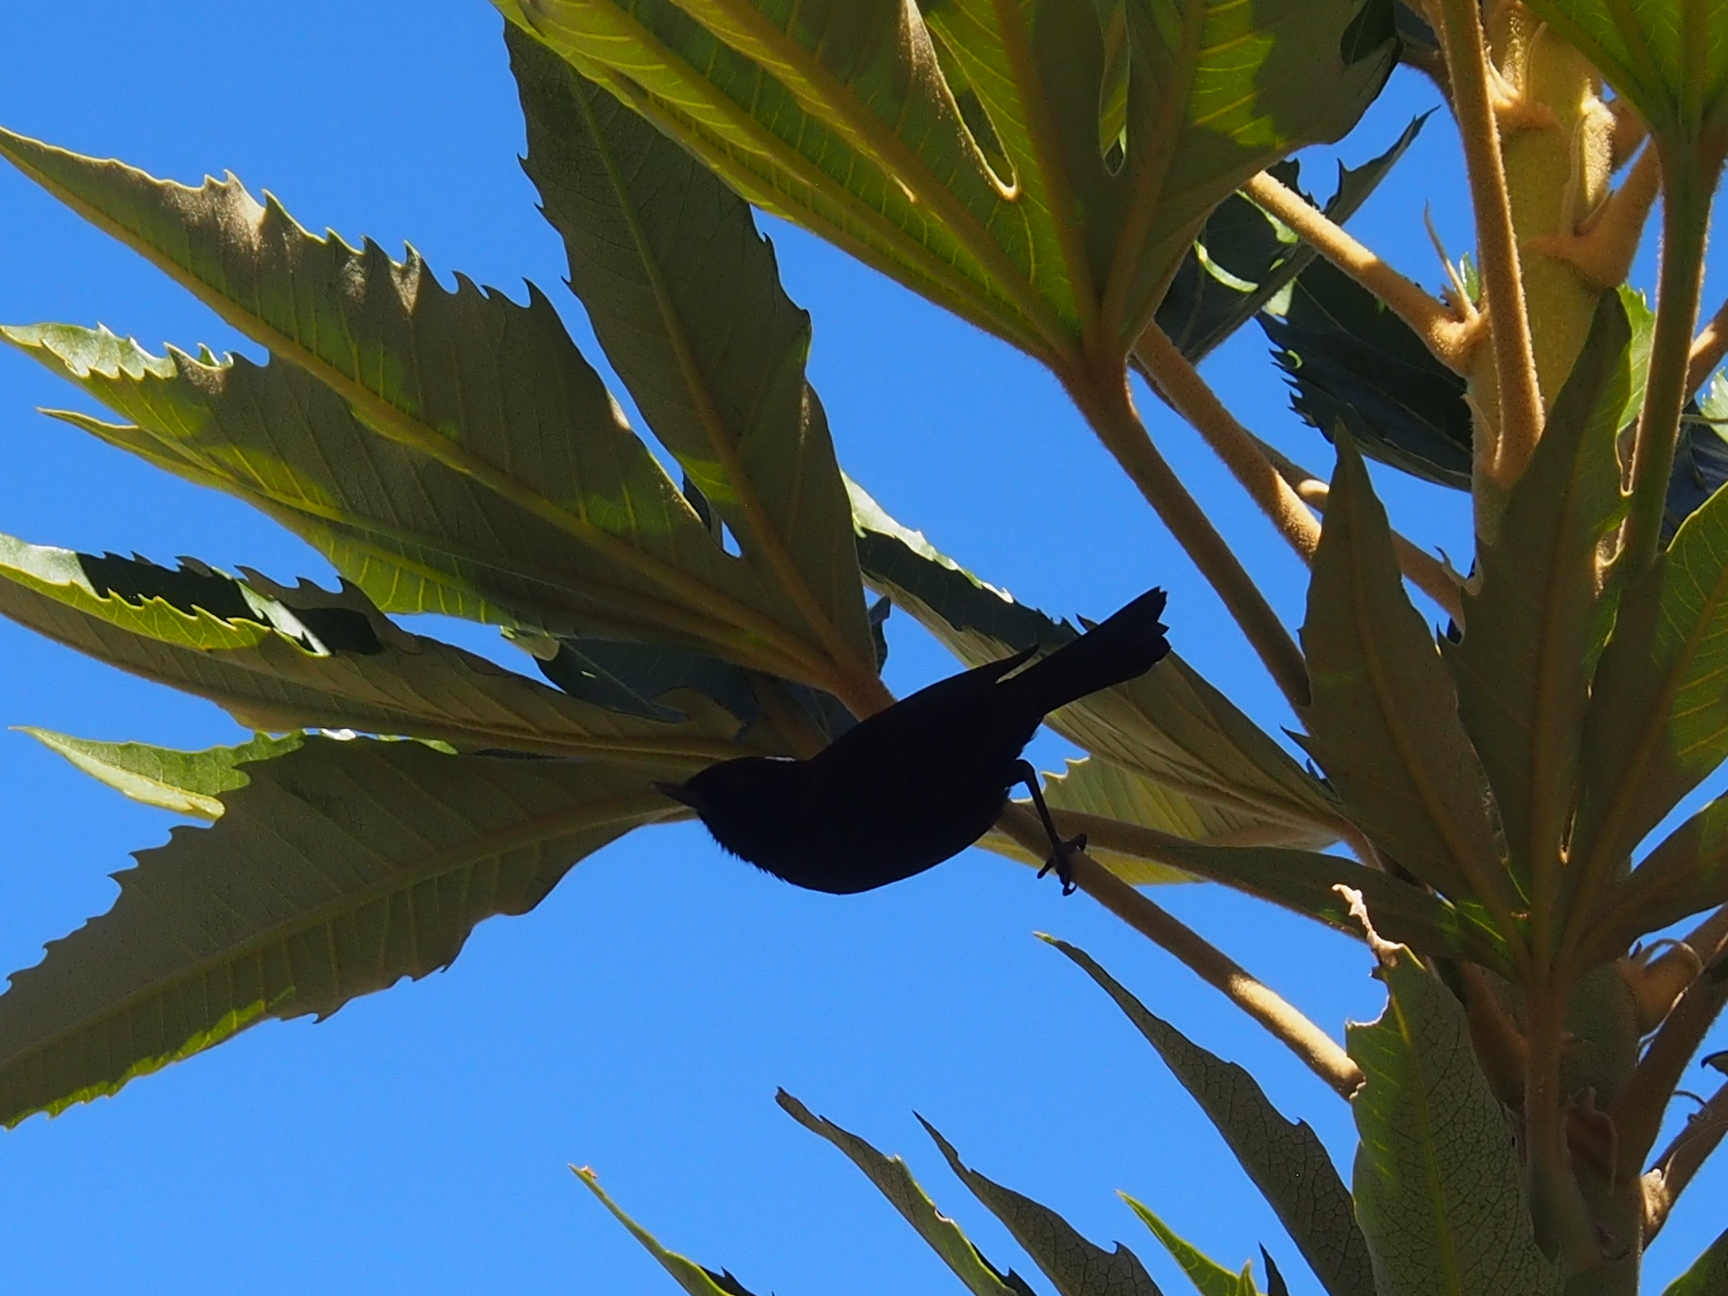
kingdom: Animalia
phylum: Chordata
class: Aves
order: Passeriformes
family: Thraupidae
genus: Diglossa
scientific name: Diglossa humeralis
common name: Black flowerpiercer
